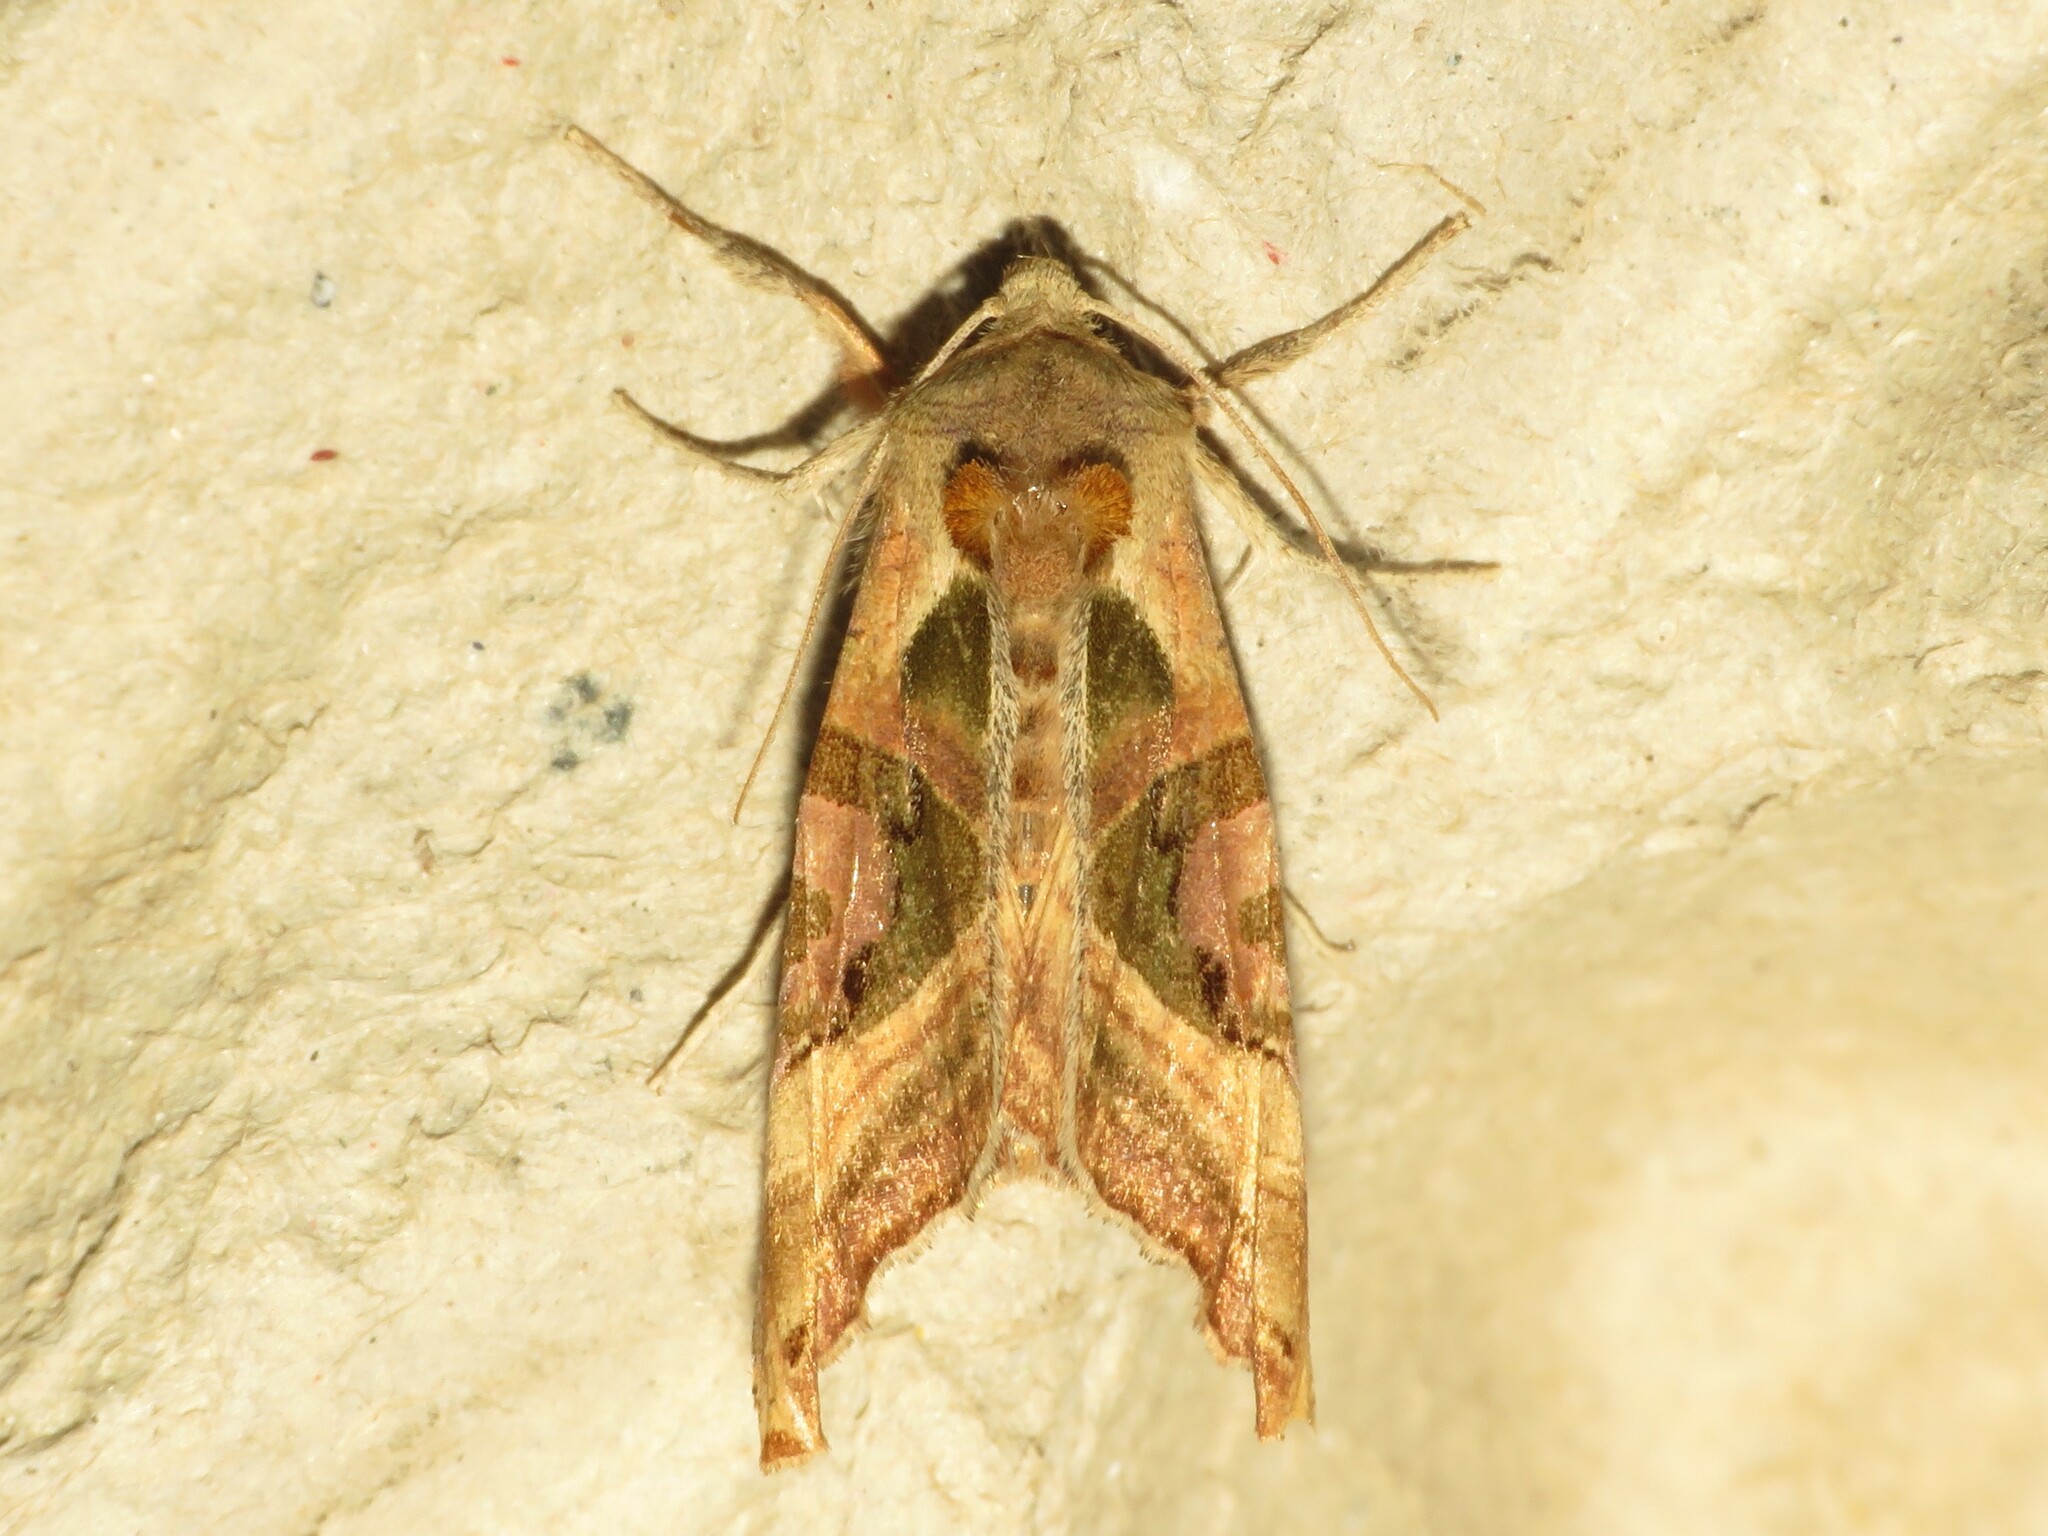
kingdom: Animalia
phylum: Arthropoda
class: Insecta
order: Lepidoptera
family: Noctuidae
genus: Phlogophora
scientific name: Phlogophora iris
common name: Olive angle shades
